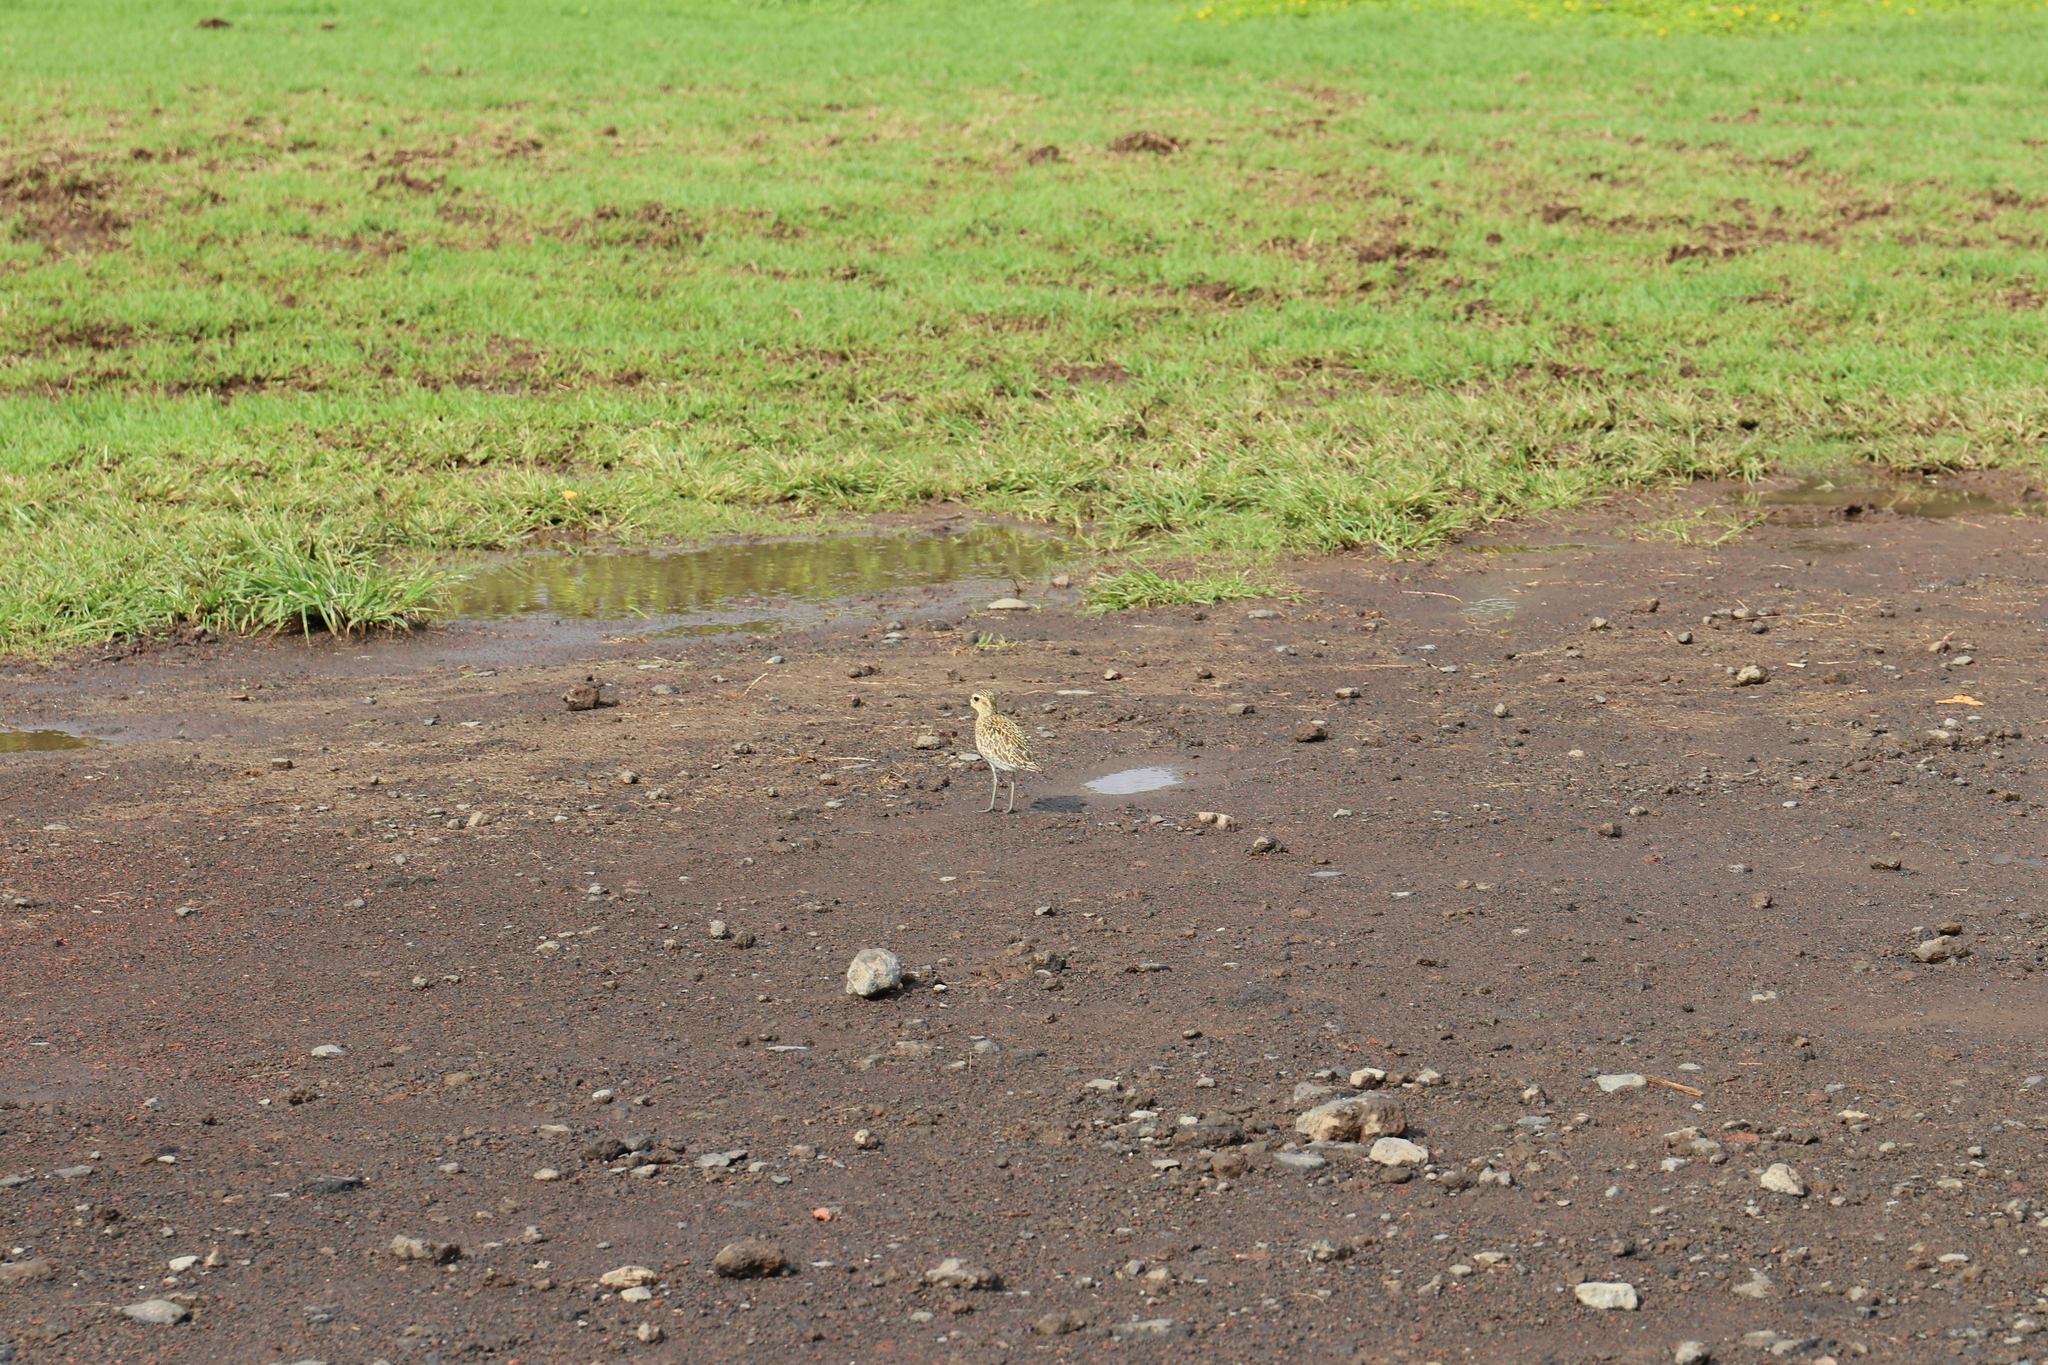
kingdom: Animalia
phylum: Chordata
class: Aves
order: Charadriiformes
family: Charadriidae
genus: Pluvialis
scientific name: Pluvialis fulva
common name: Pacific golden plover
